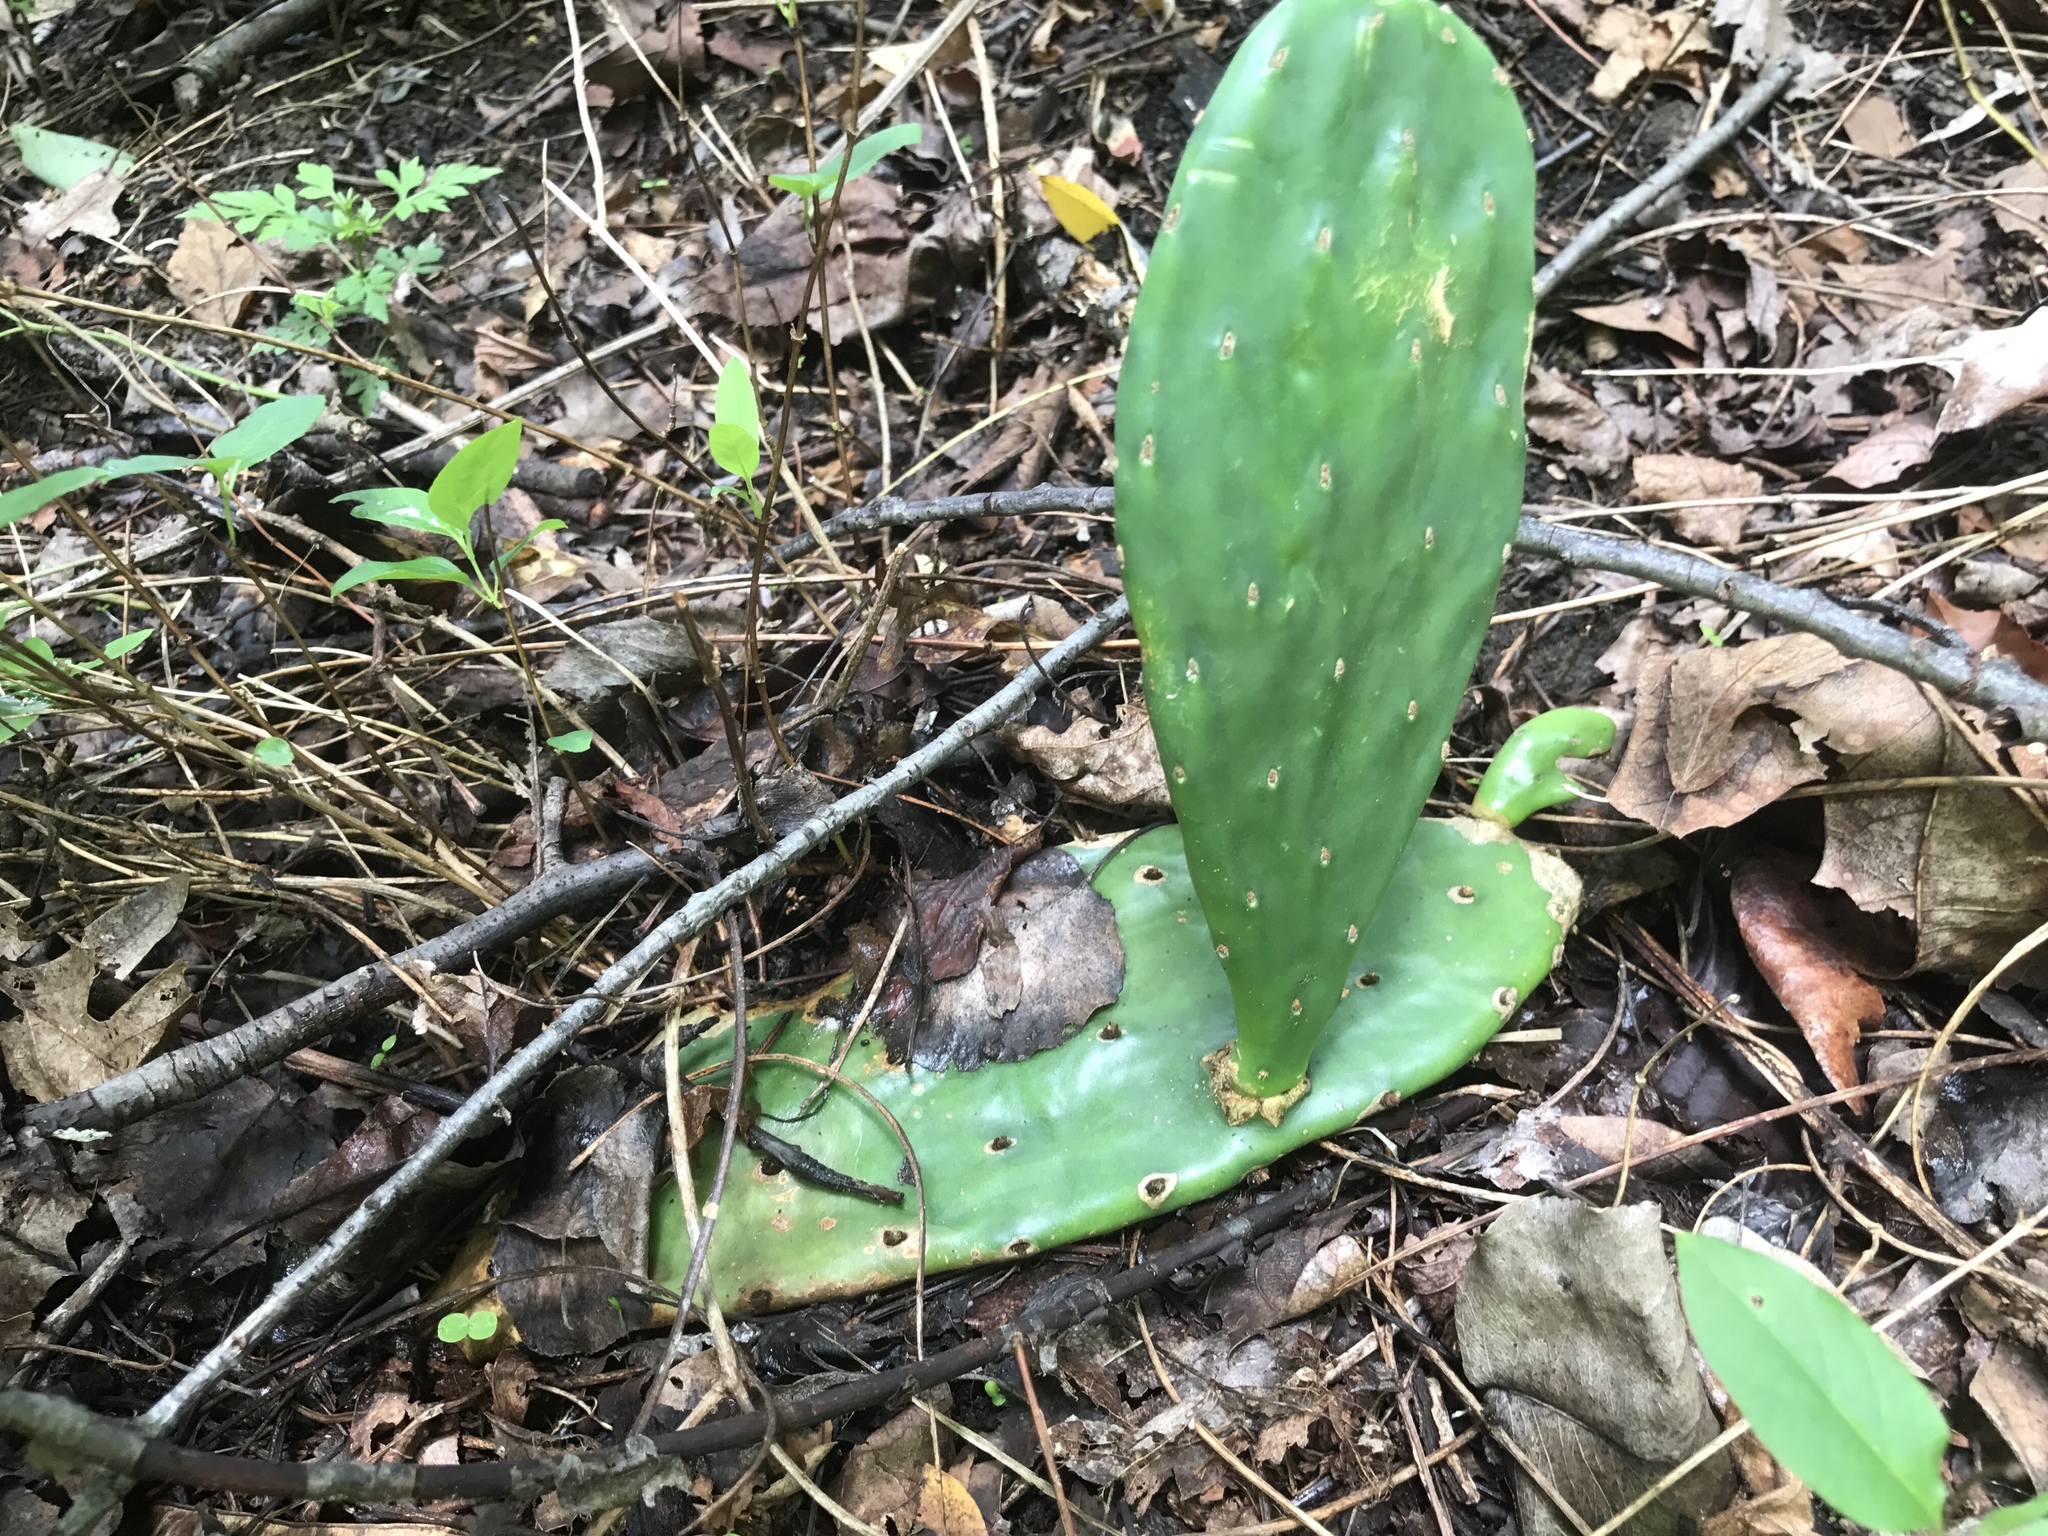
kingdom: Plantae
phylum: Tracheophyta
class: Magnoliopsida
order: Caryophyllales
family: Cactaceae
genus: Opuntia
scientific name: Opuntia humifusa
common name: Eastern prickly-pear
